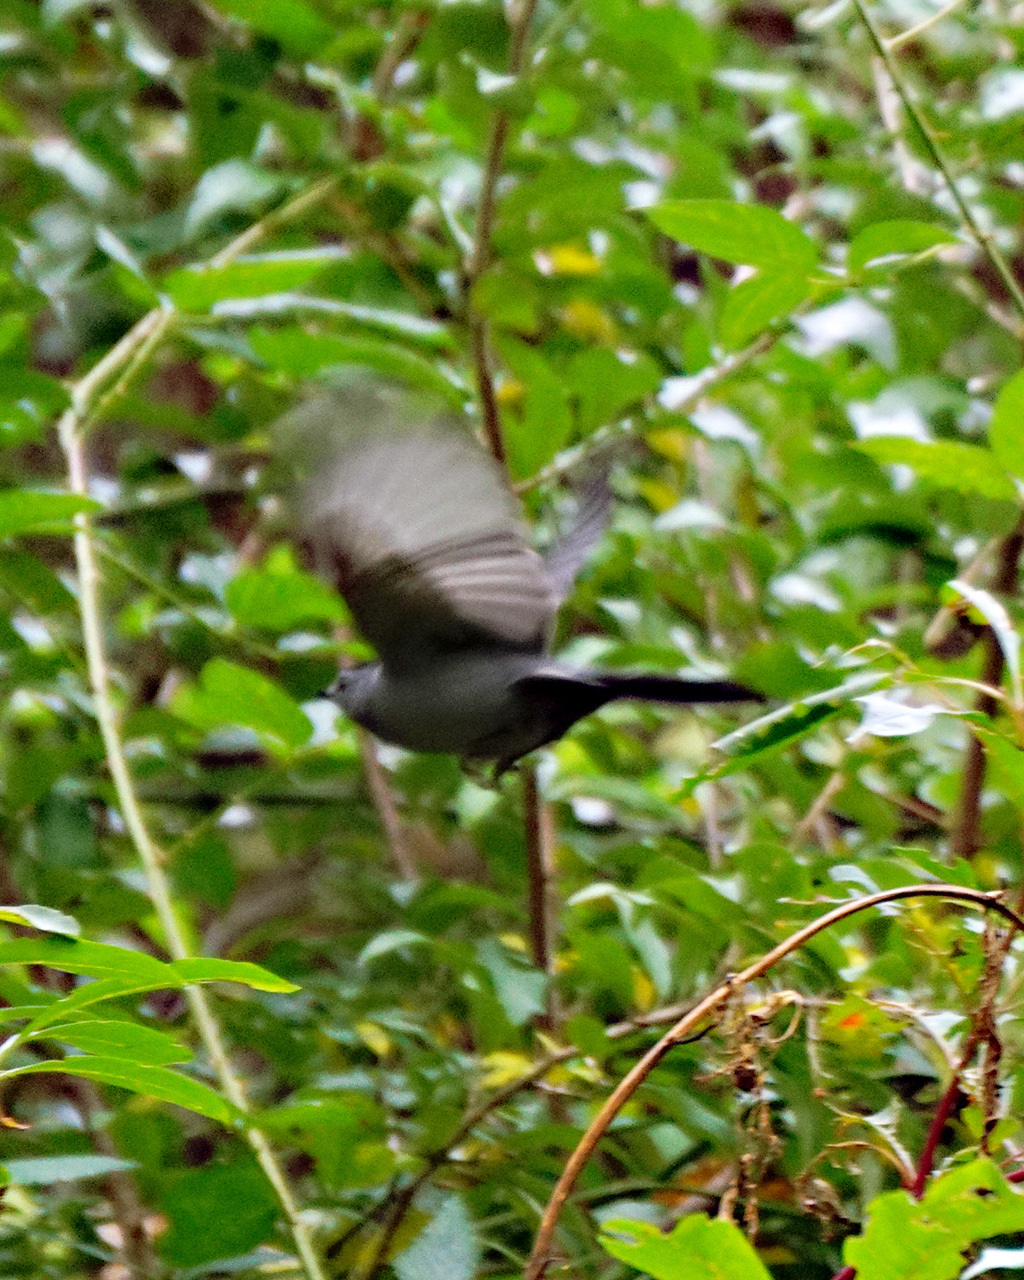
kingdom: Animalia
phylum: Chordata
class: Aves
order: Passeriformes
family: Mimidae
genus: Dumetella
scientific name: Dumetella carolinensis
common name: Gray catbird
